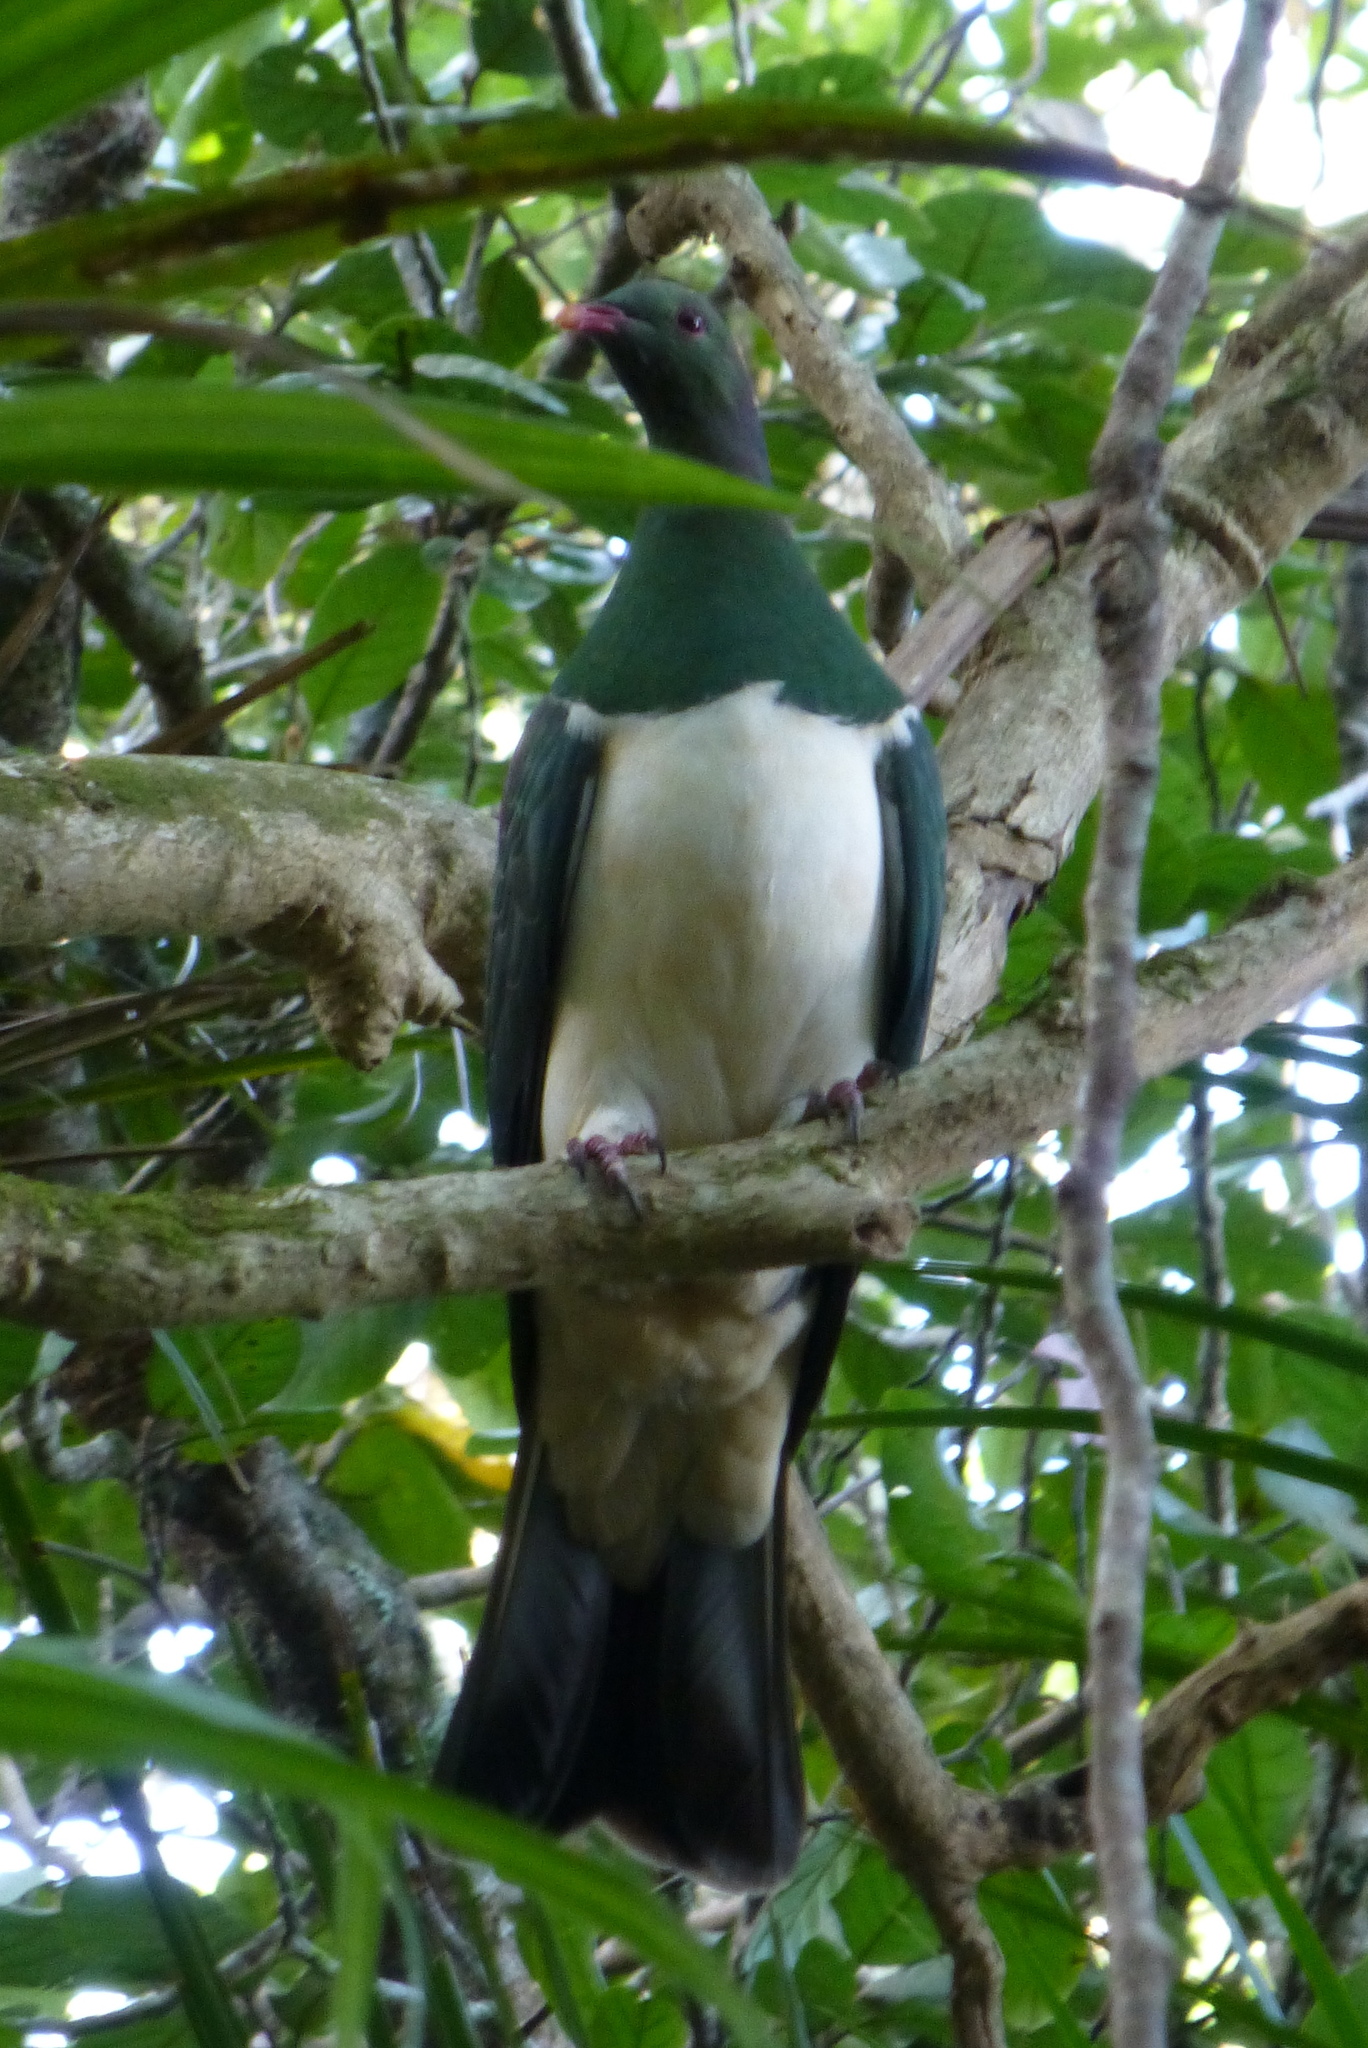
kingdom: Animalia
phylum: Chordata
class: Aves
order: Columbiformes
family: Columbidae
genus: Hemiphaga
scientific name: Hemiphaga novaeseelandiae
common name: New zealand pigeon
